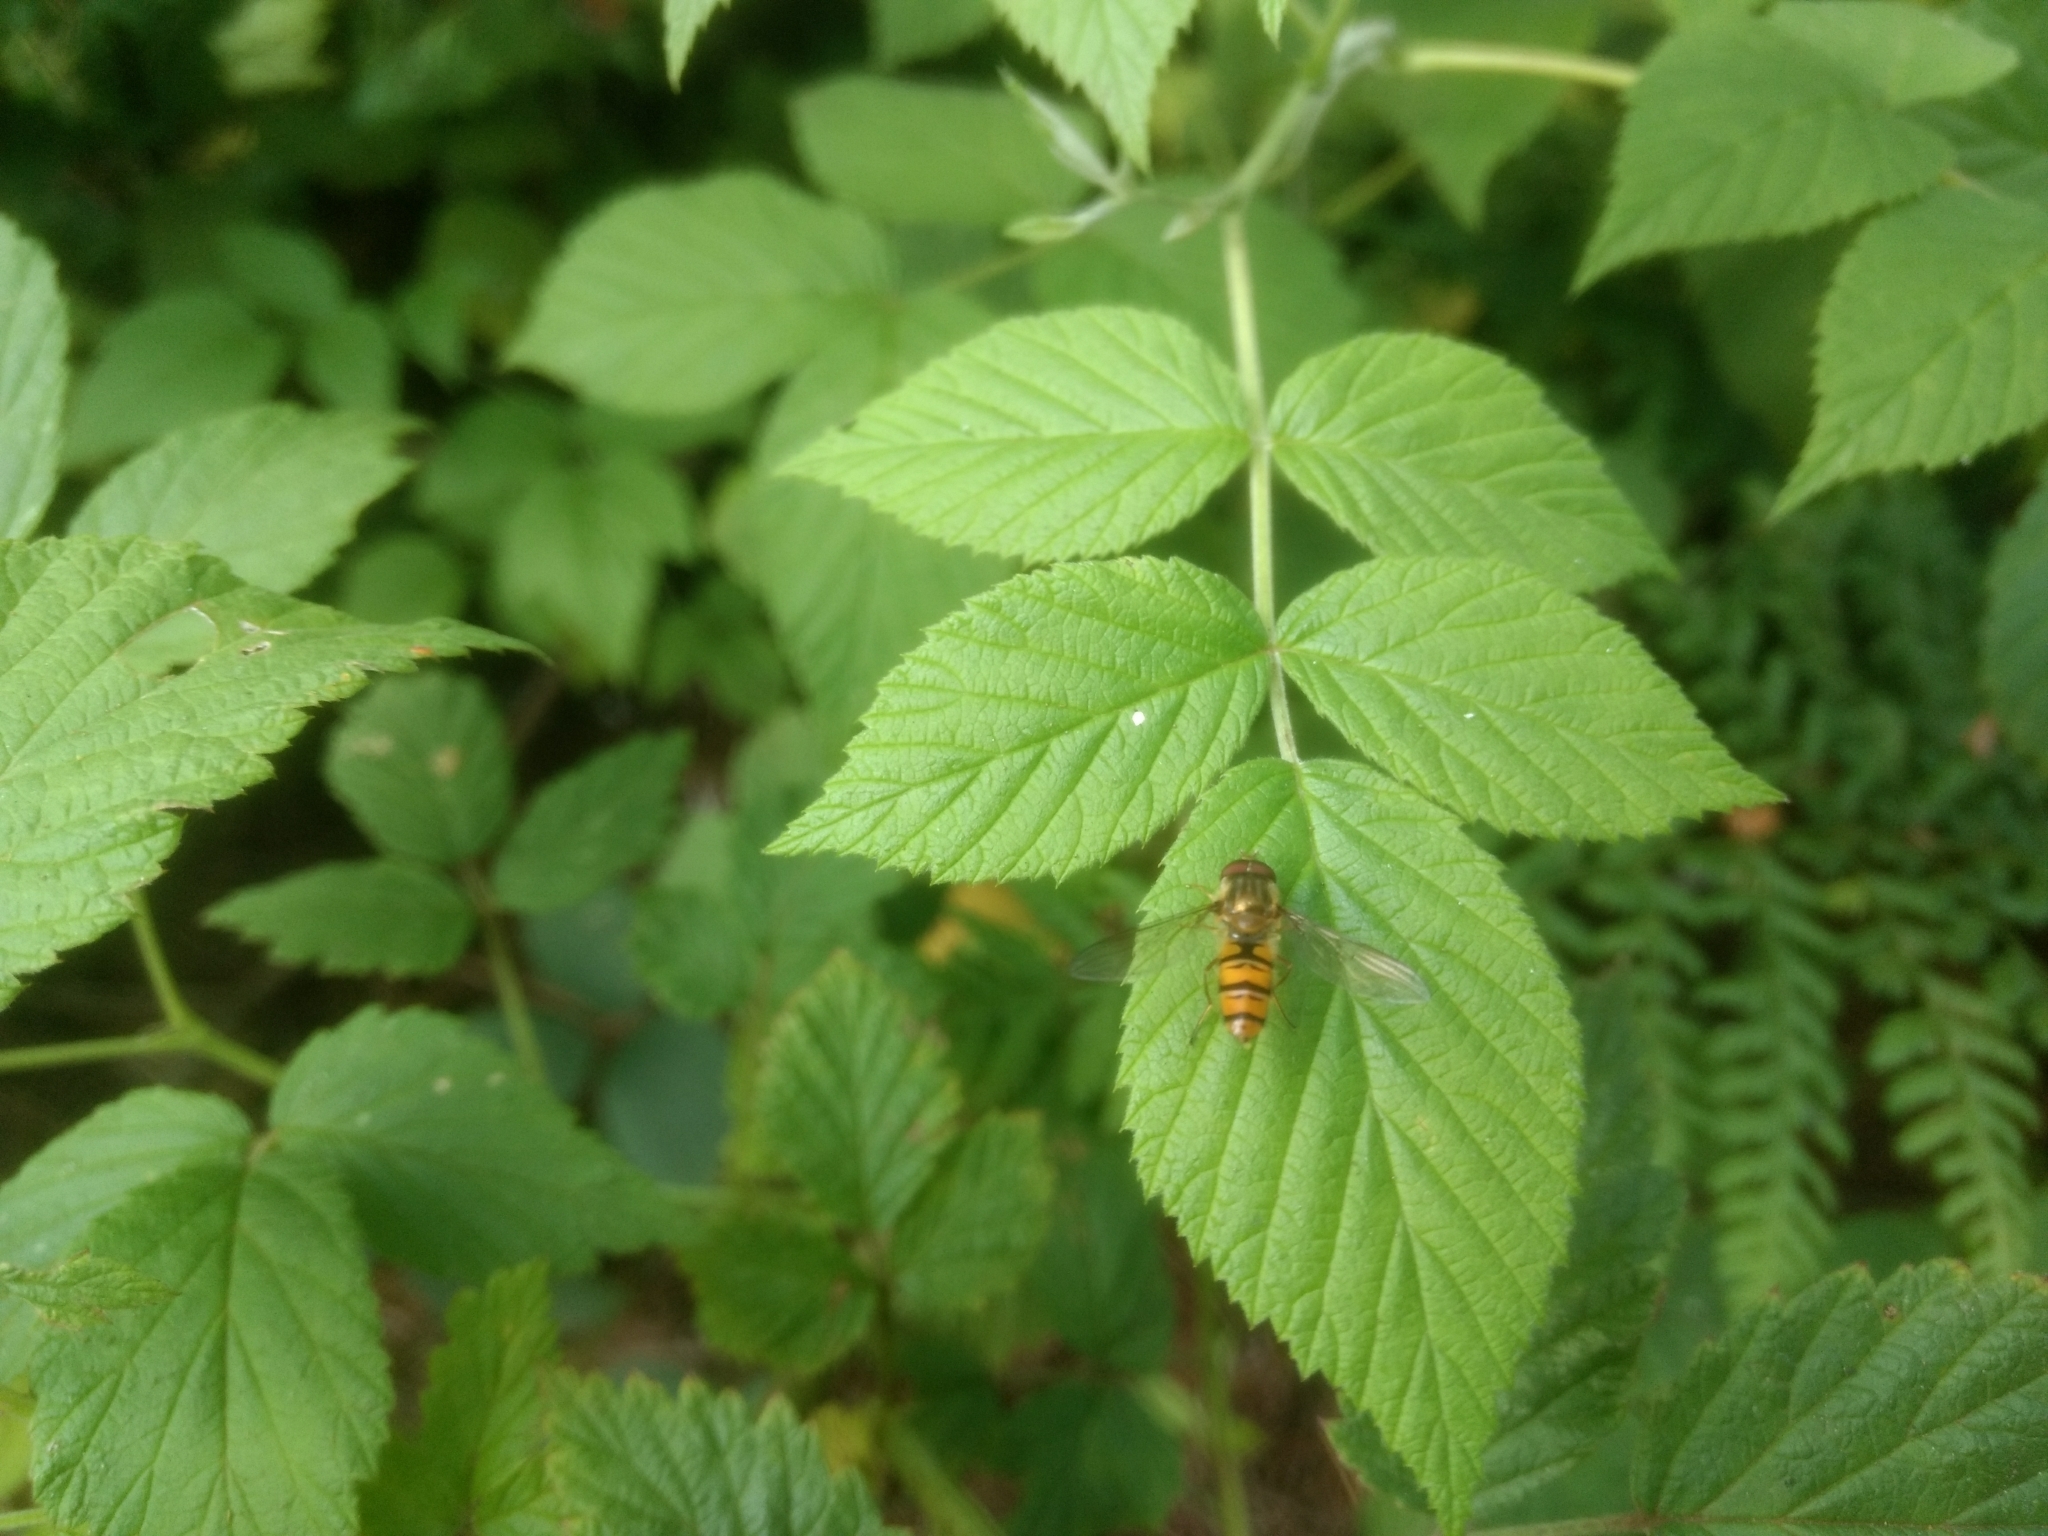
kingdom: Animalia
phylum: Arthropoda
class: Insecta
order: Diptera
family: Syrphidae
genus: Episyrphus
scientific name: Episyrphus balteatus
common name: Marmalade hoverfly
